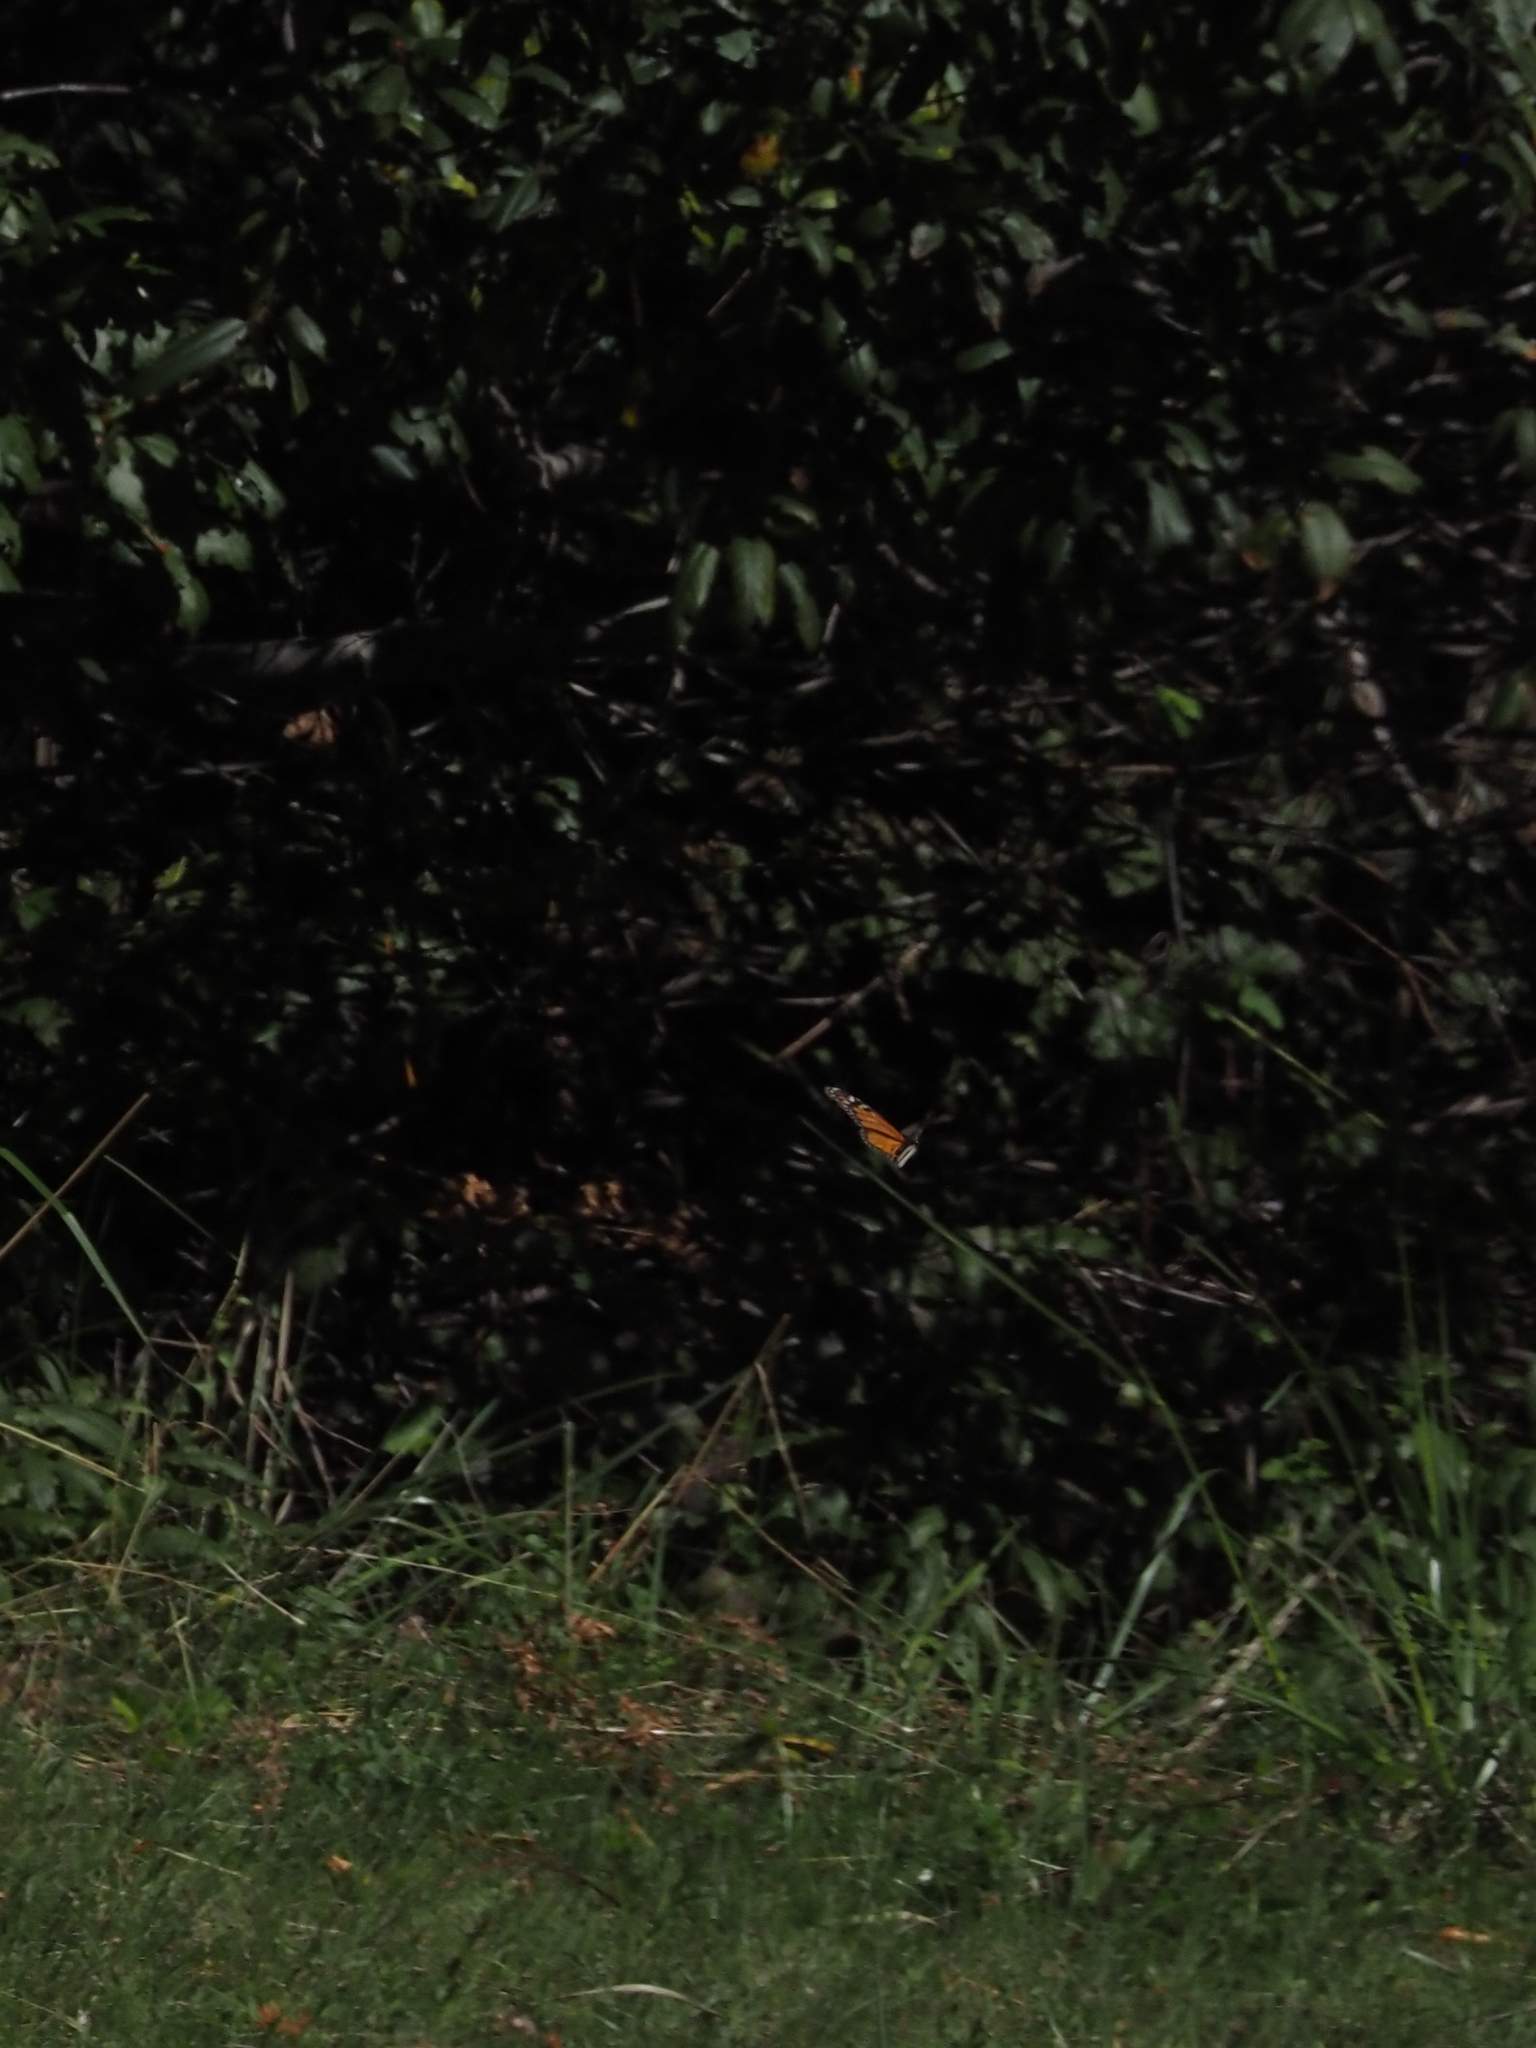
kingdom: Animalia
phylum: Arthropoda
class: Insecta
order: Lepidoptera
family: Nymphalidae
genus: Danaus
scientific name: Danaus plexippus
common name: Monarch
